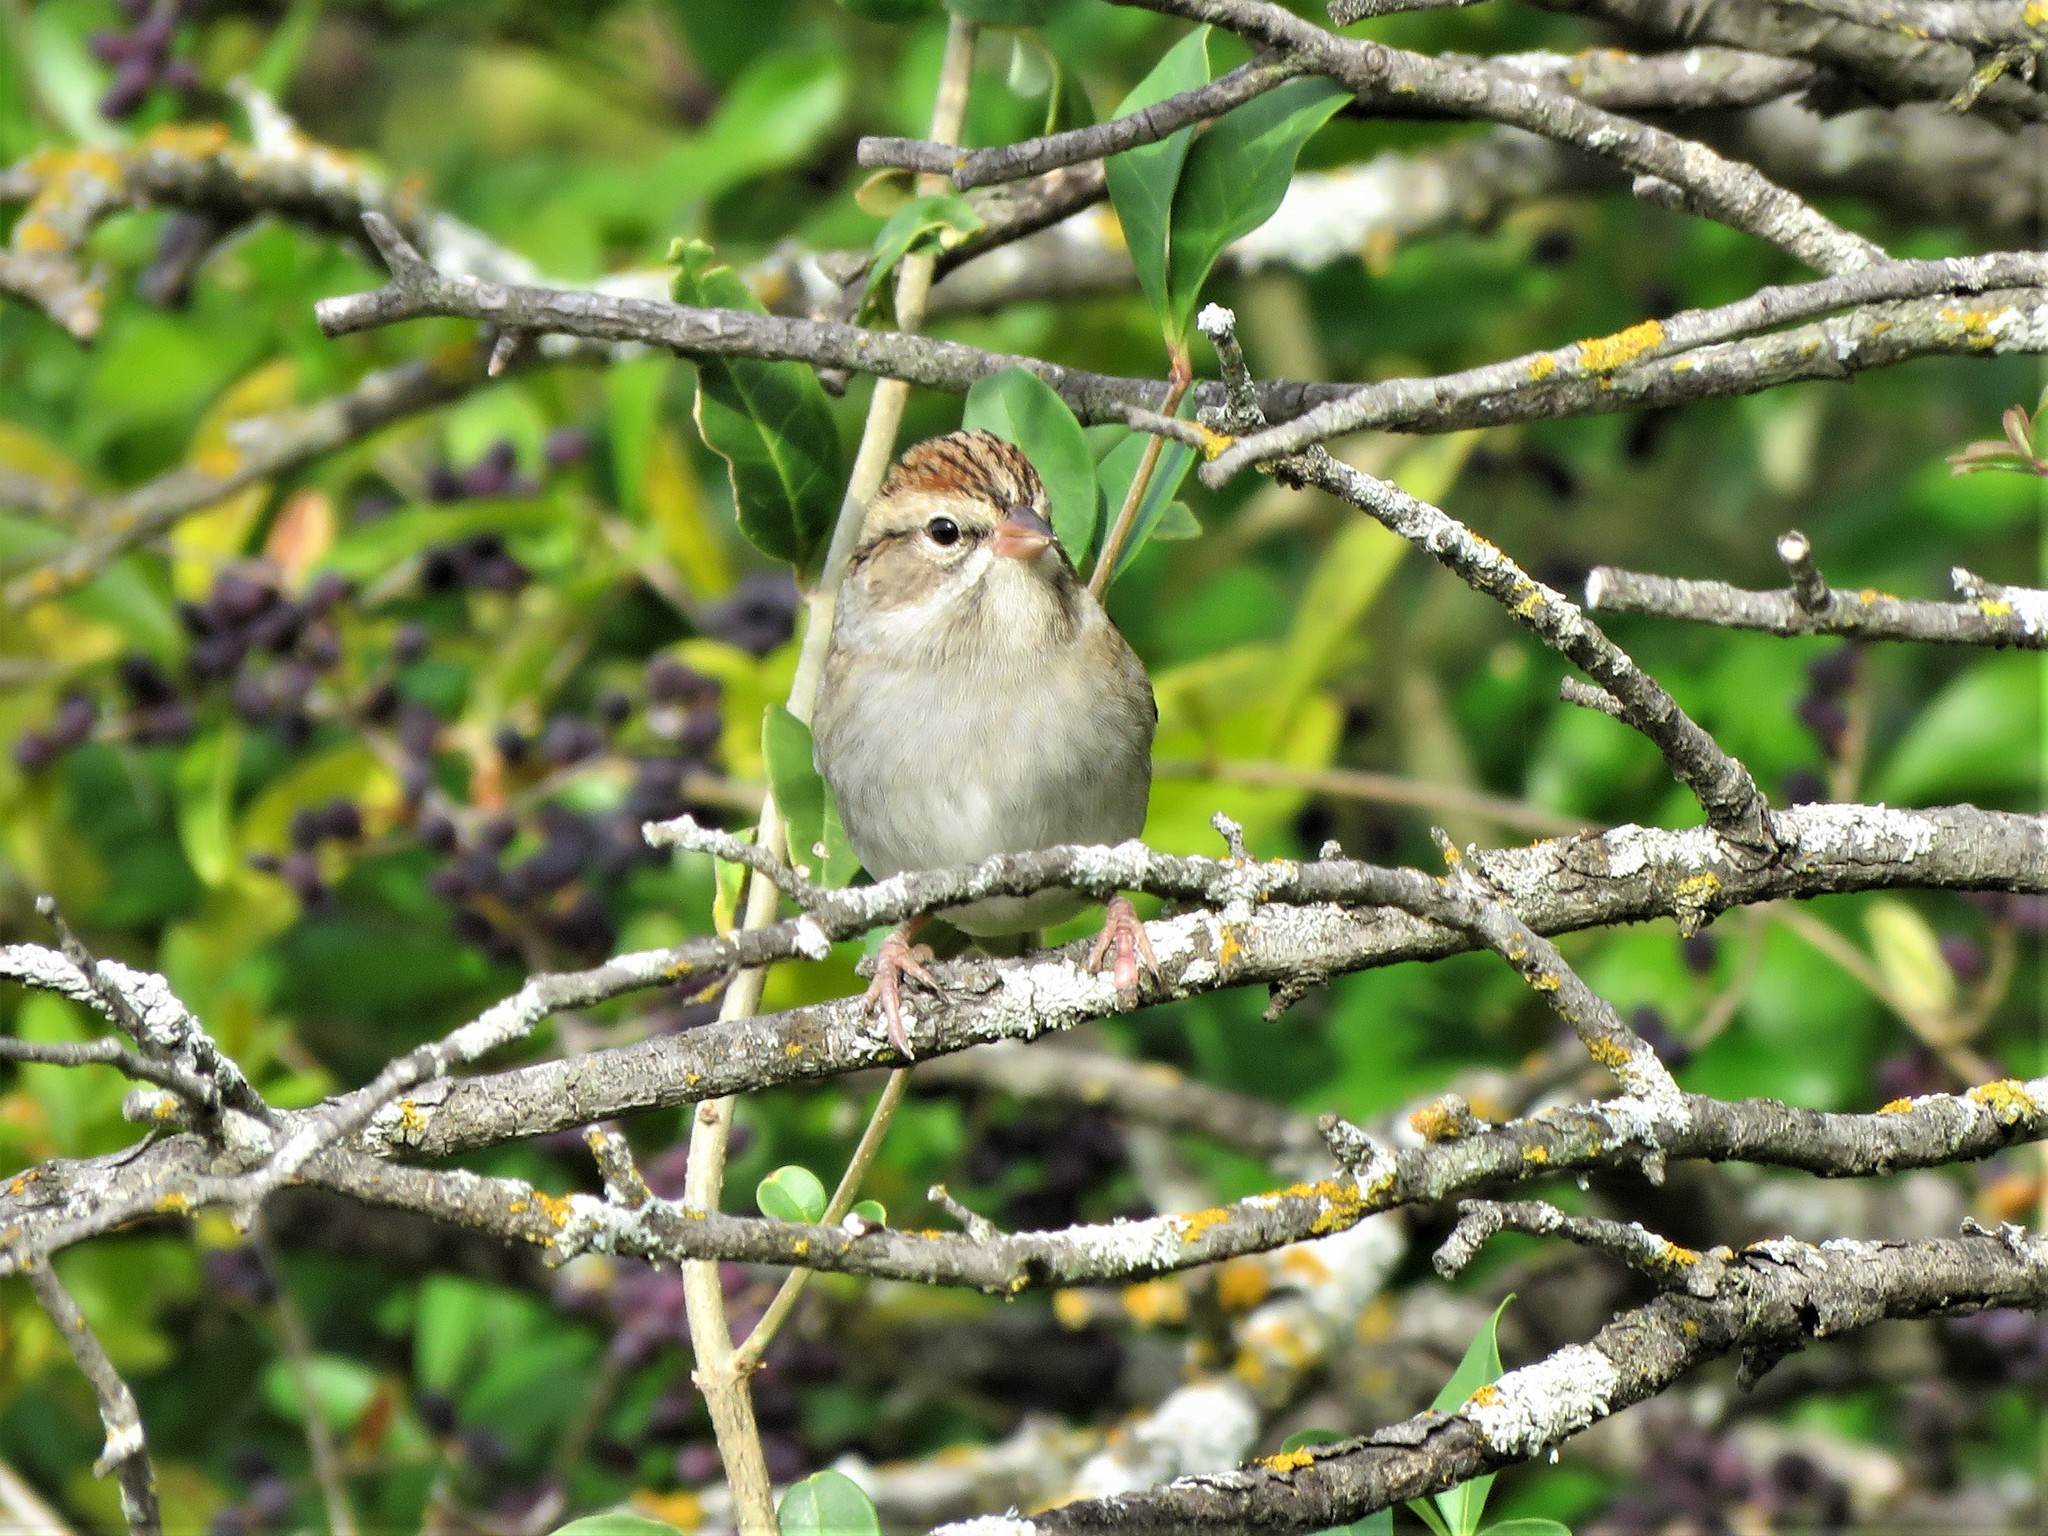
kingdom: Animalia
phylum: Chordata
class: Aves
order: Passeriformes
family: Passerellidae
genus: Spizella
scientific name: Spizella passerina
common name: Chipping sparrow
